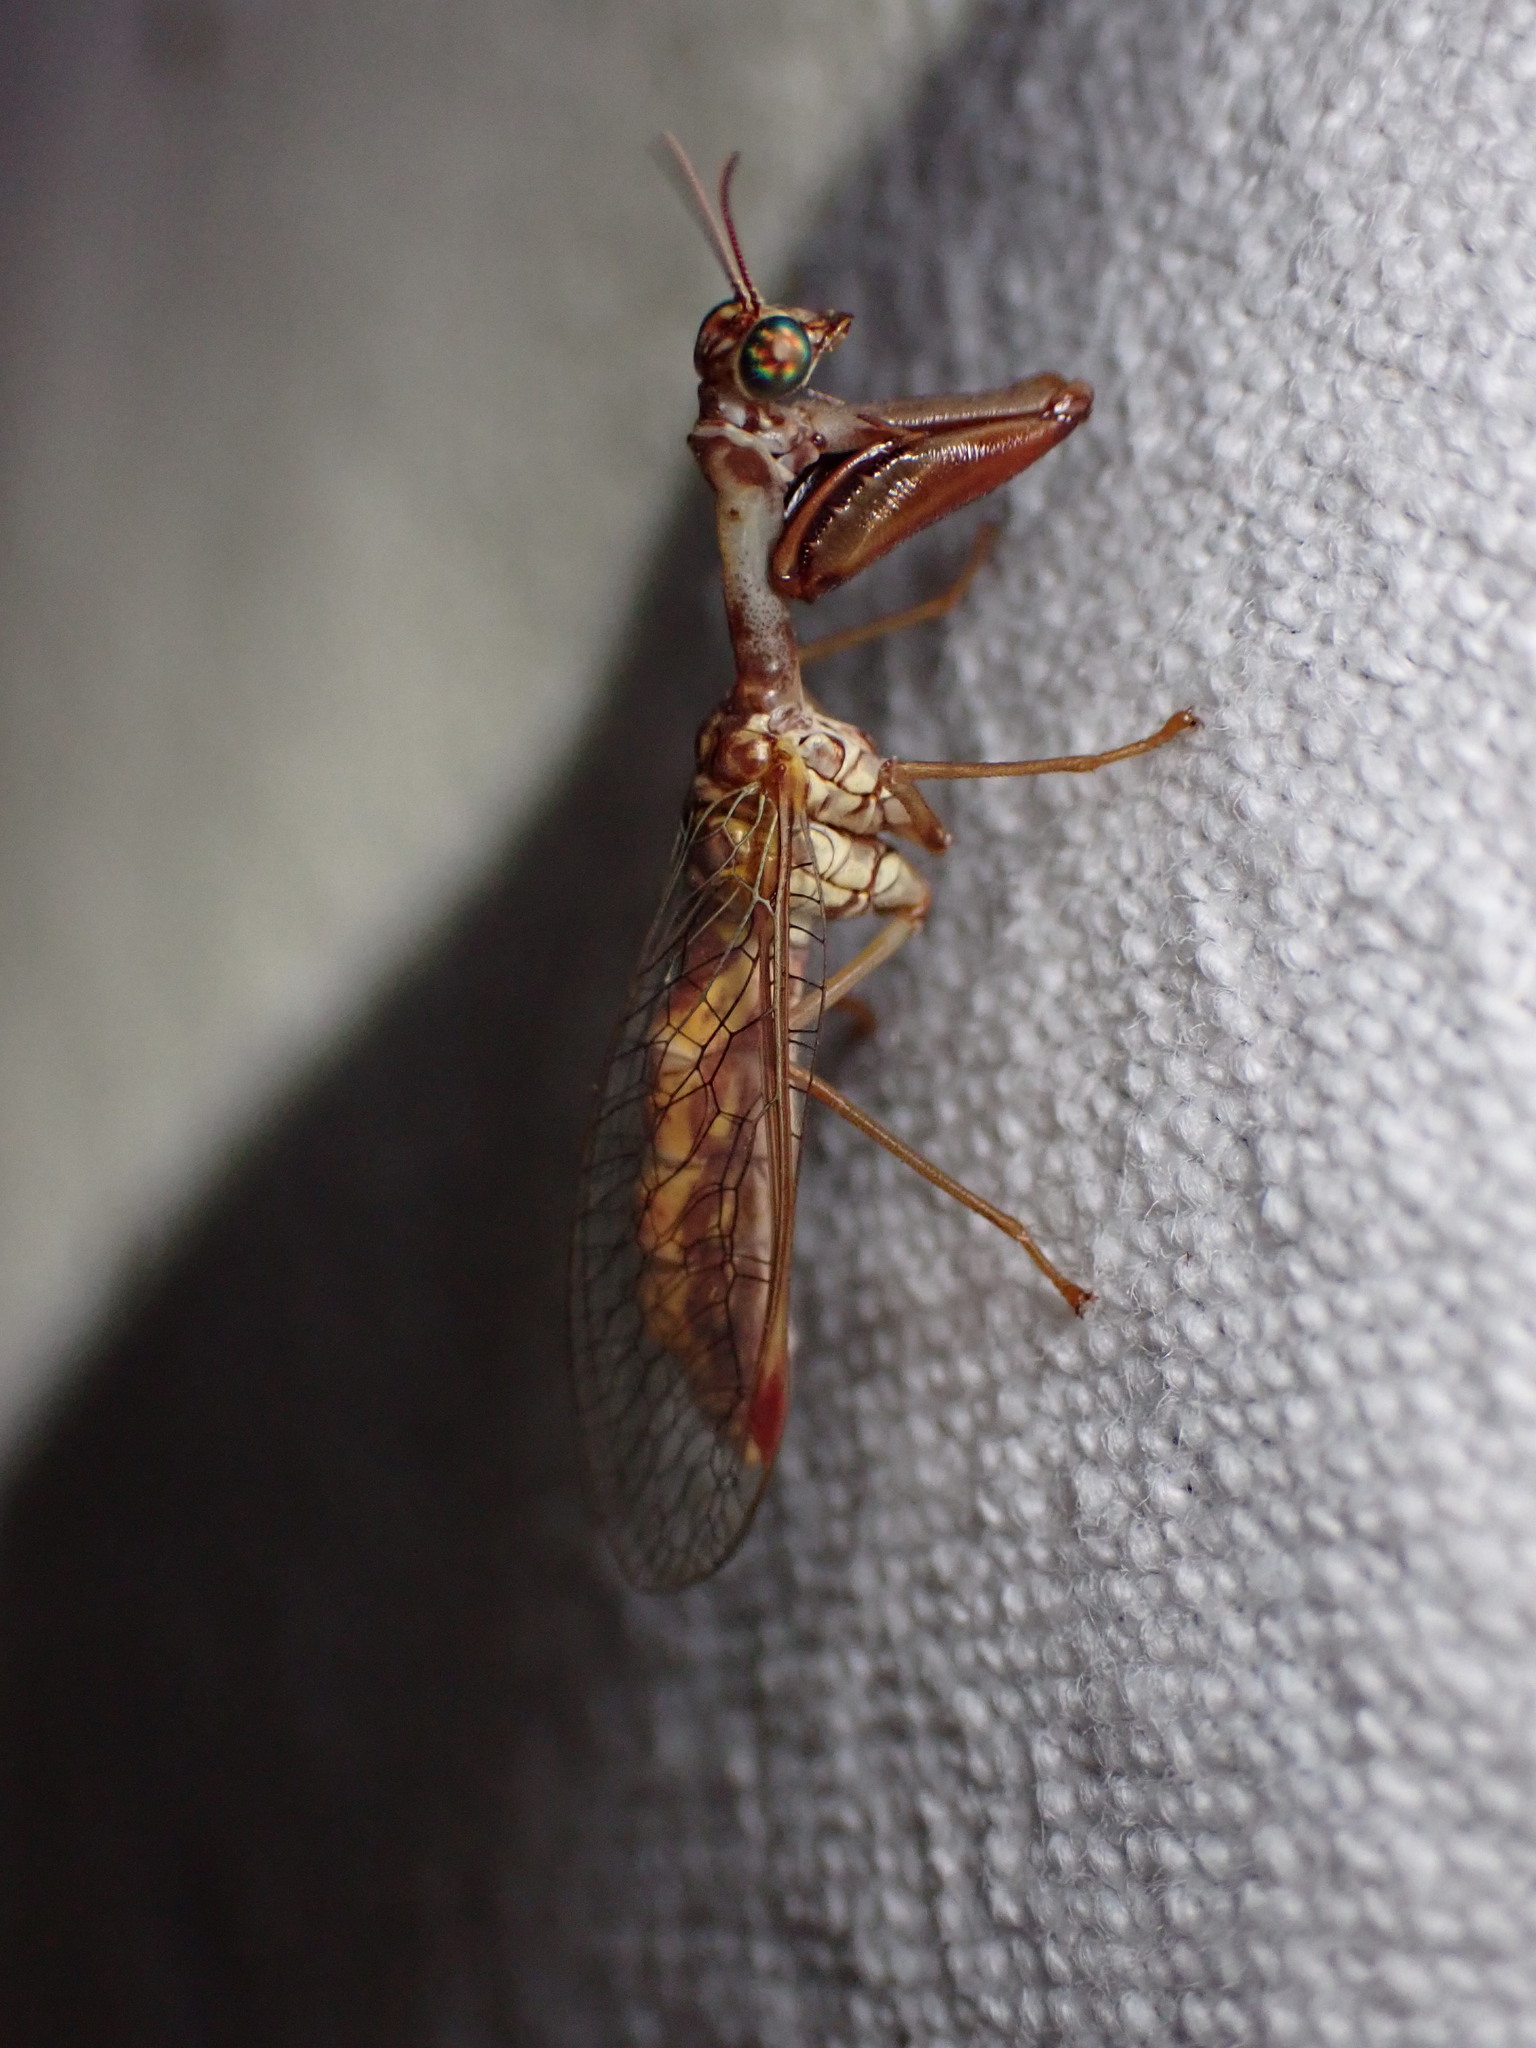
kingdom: Animalia
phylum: Arthropoda
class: Insecta
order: Neuroptera
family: Mantispidae
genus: Mantispa
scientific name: Mantispa styriaca
